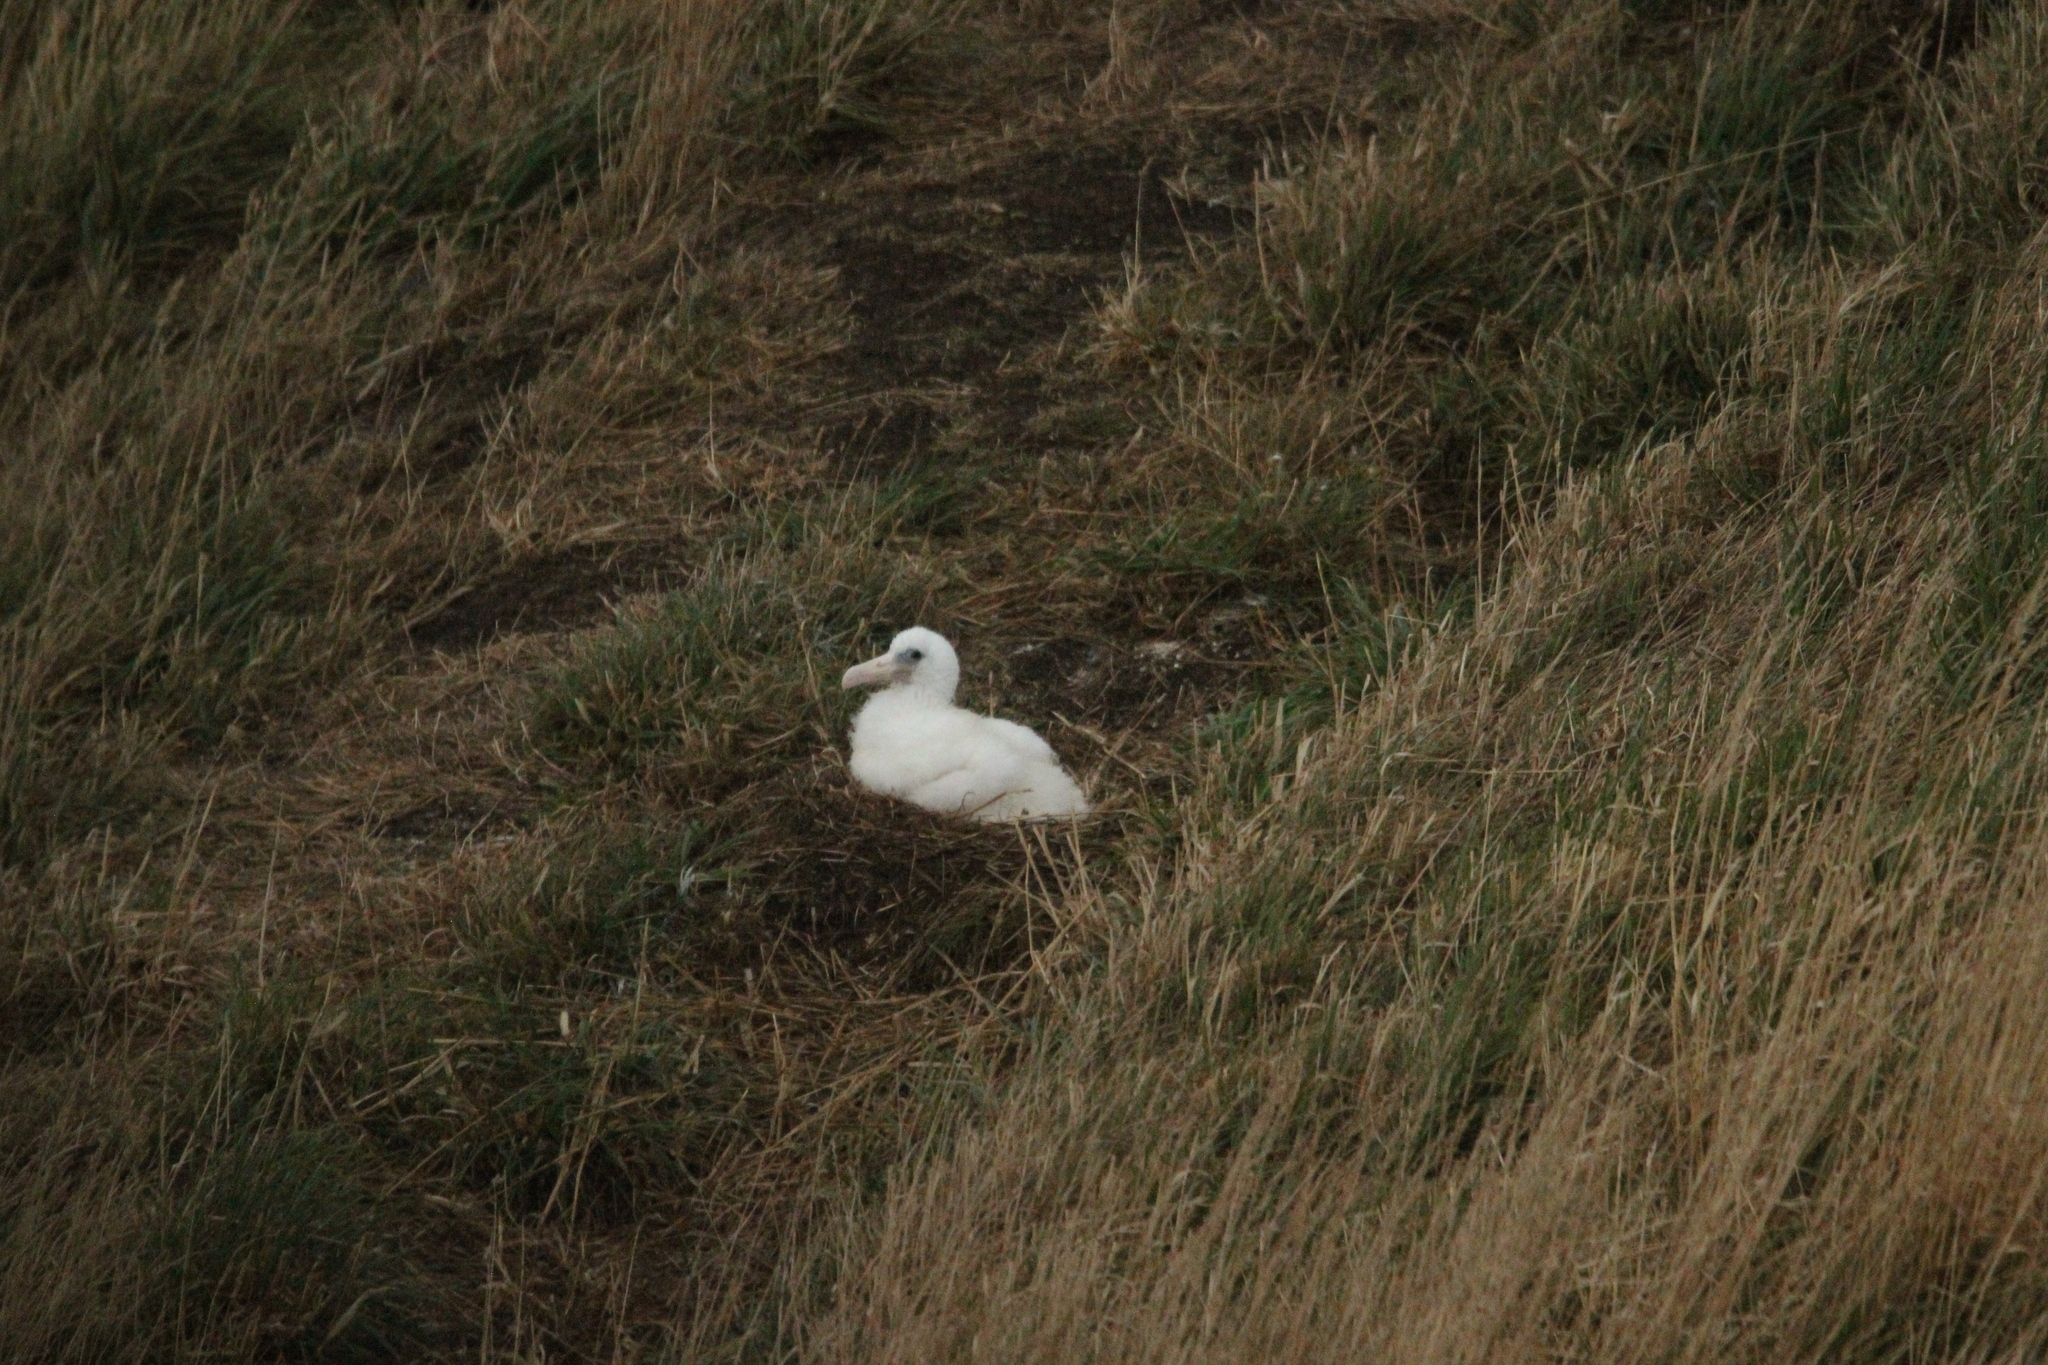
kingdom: Animalia
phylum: Chordata
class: Aves
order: Procellariiformes
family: Diomedeidae
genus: Diomedea
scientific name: Diomedea sanfordi
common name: Northern royal albatross
